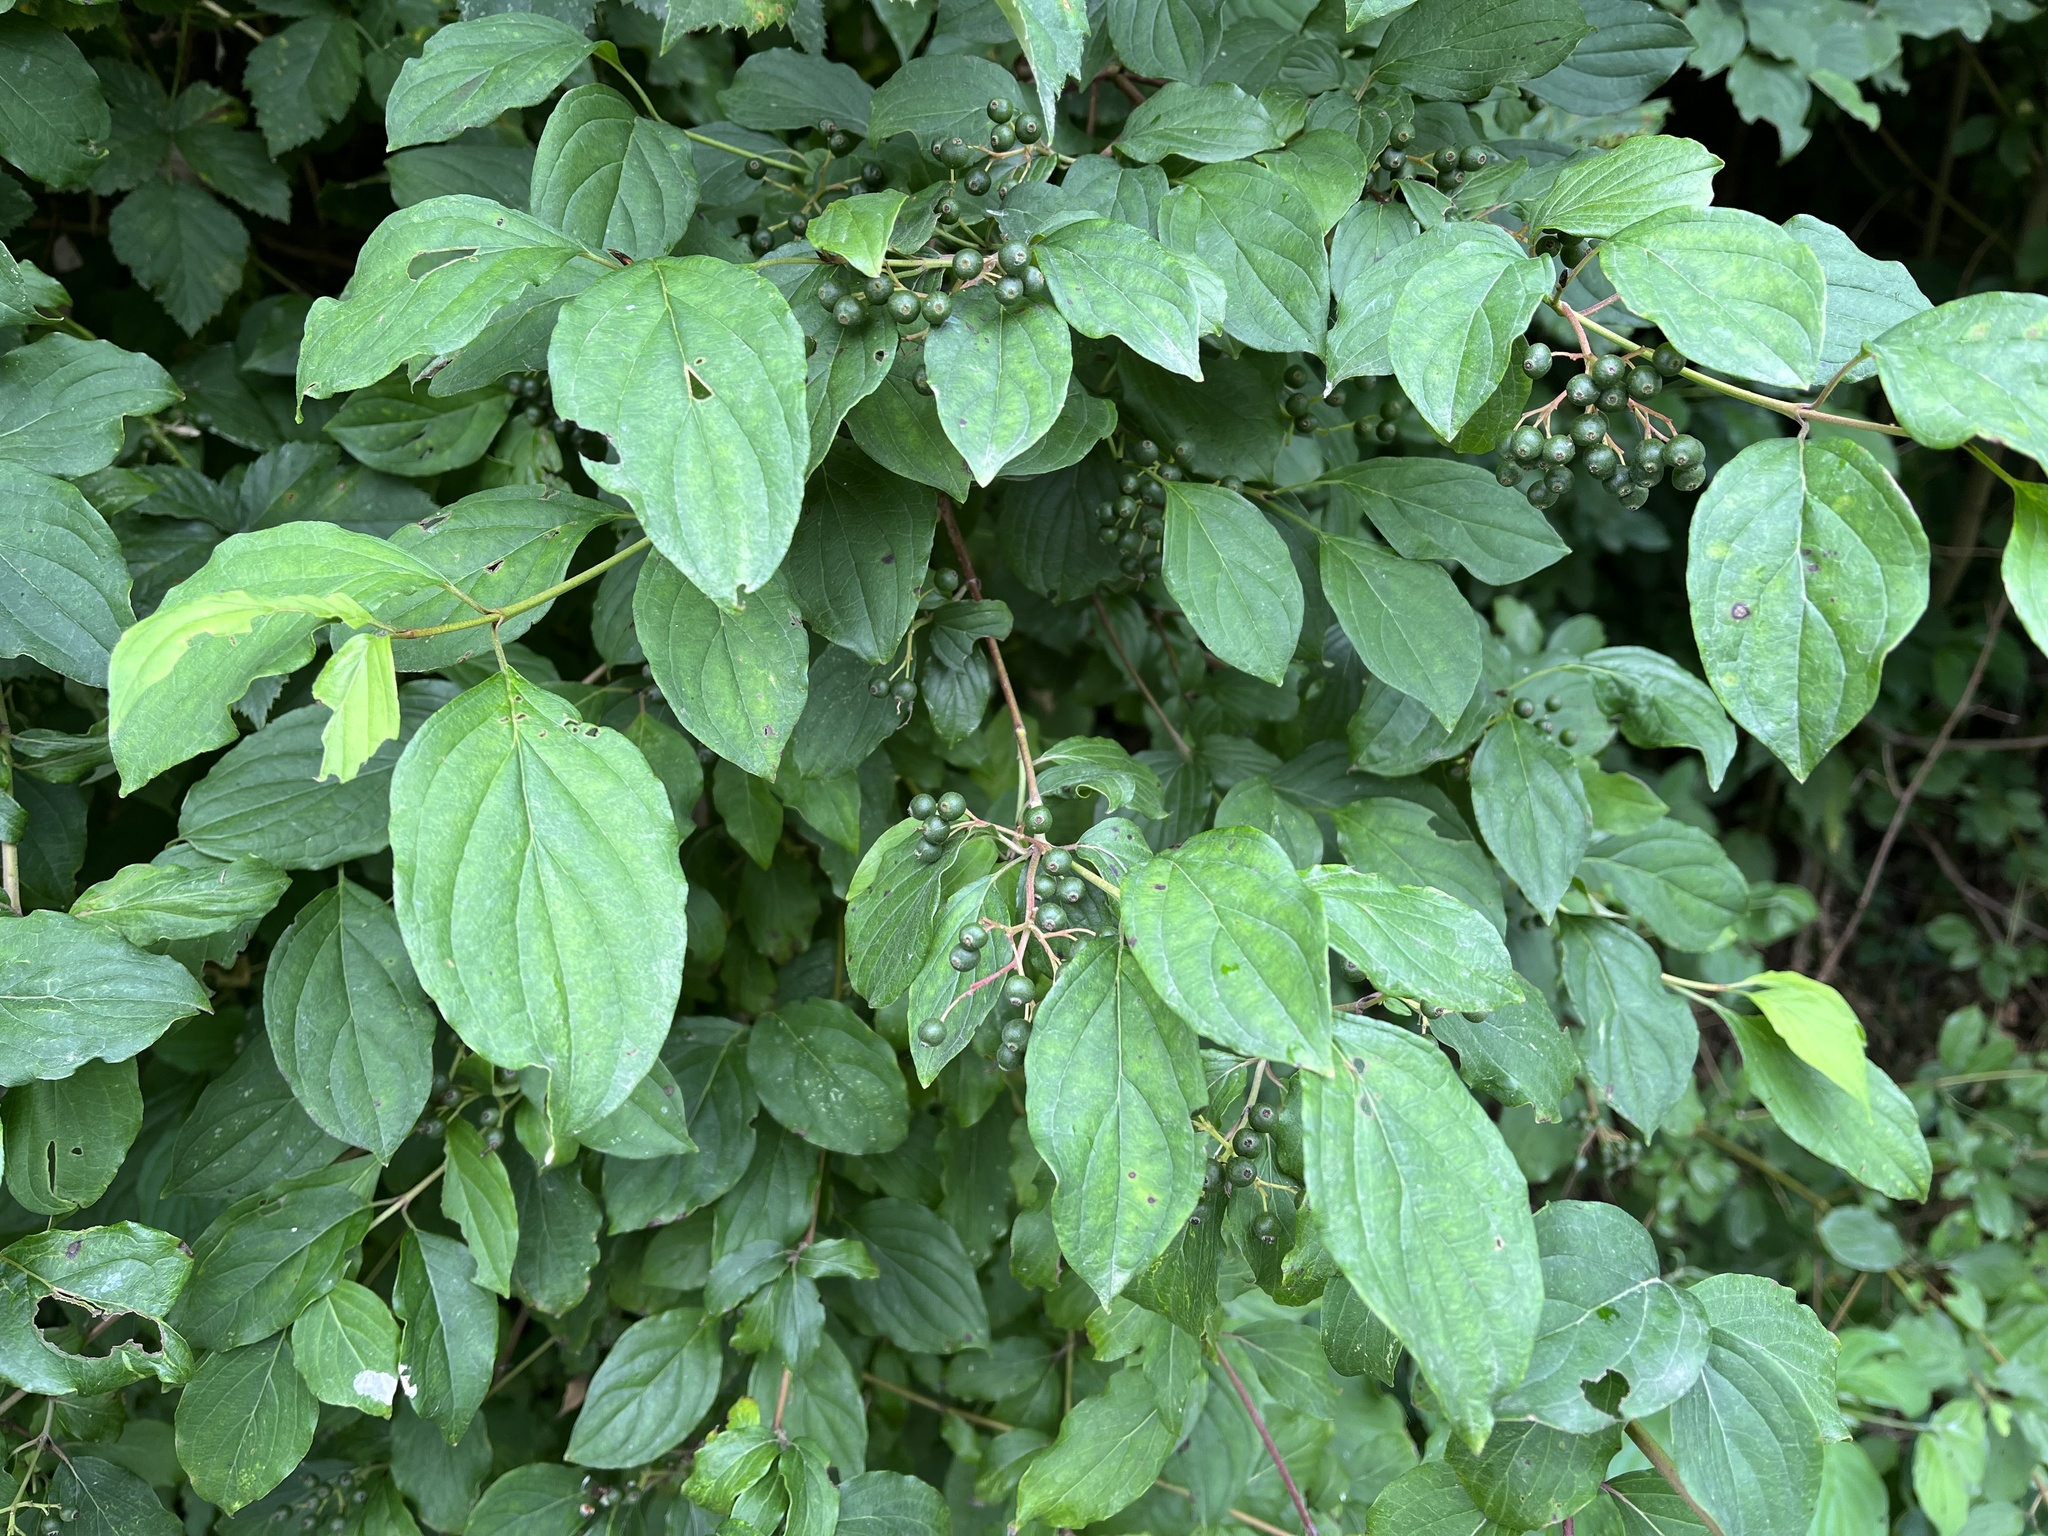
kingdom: Plantae
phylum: Tracheophyta
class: Magnoliopsida
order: Cornales
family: Cornaceae
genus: Cornus
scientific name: Cornus sanguinea
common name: Dogwood
